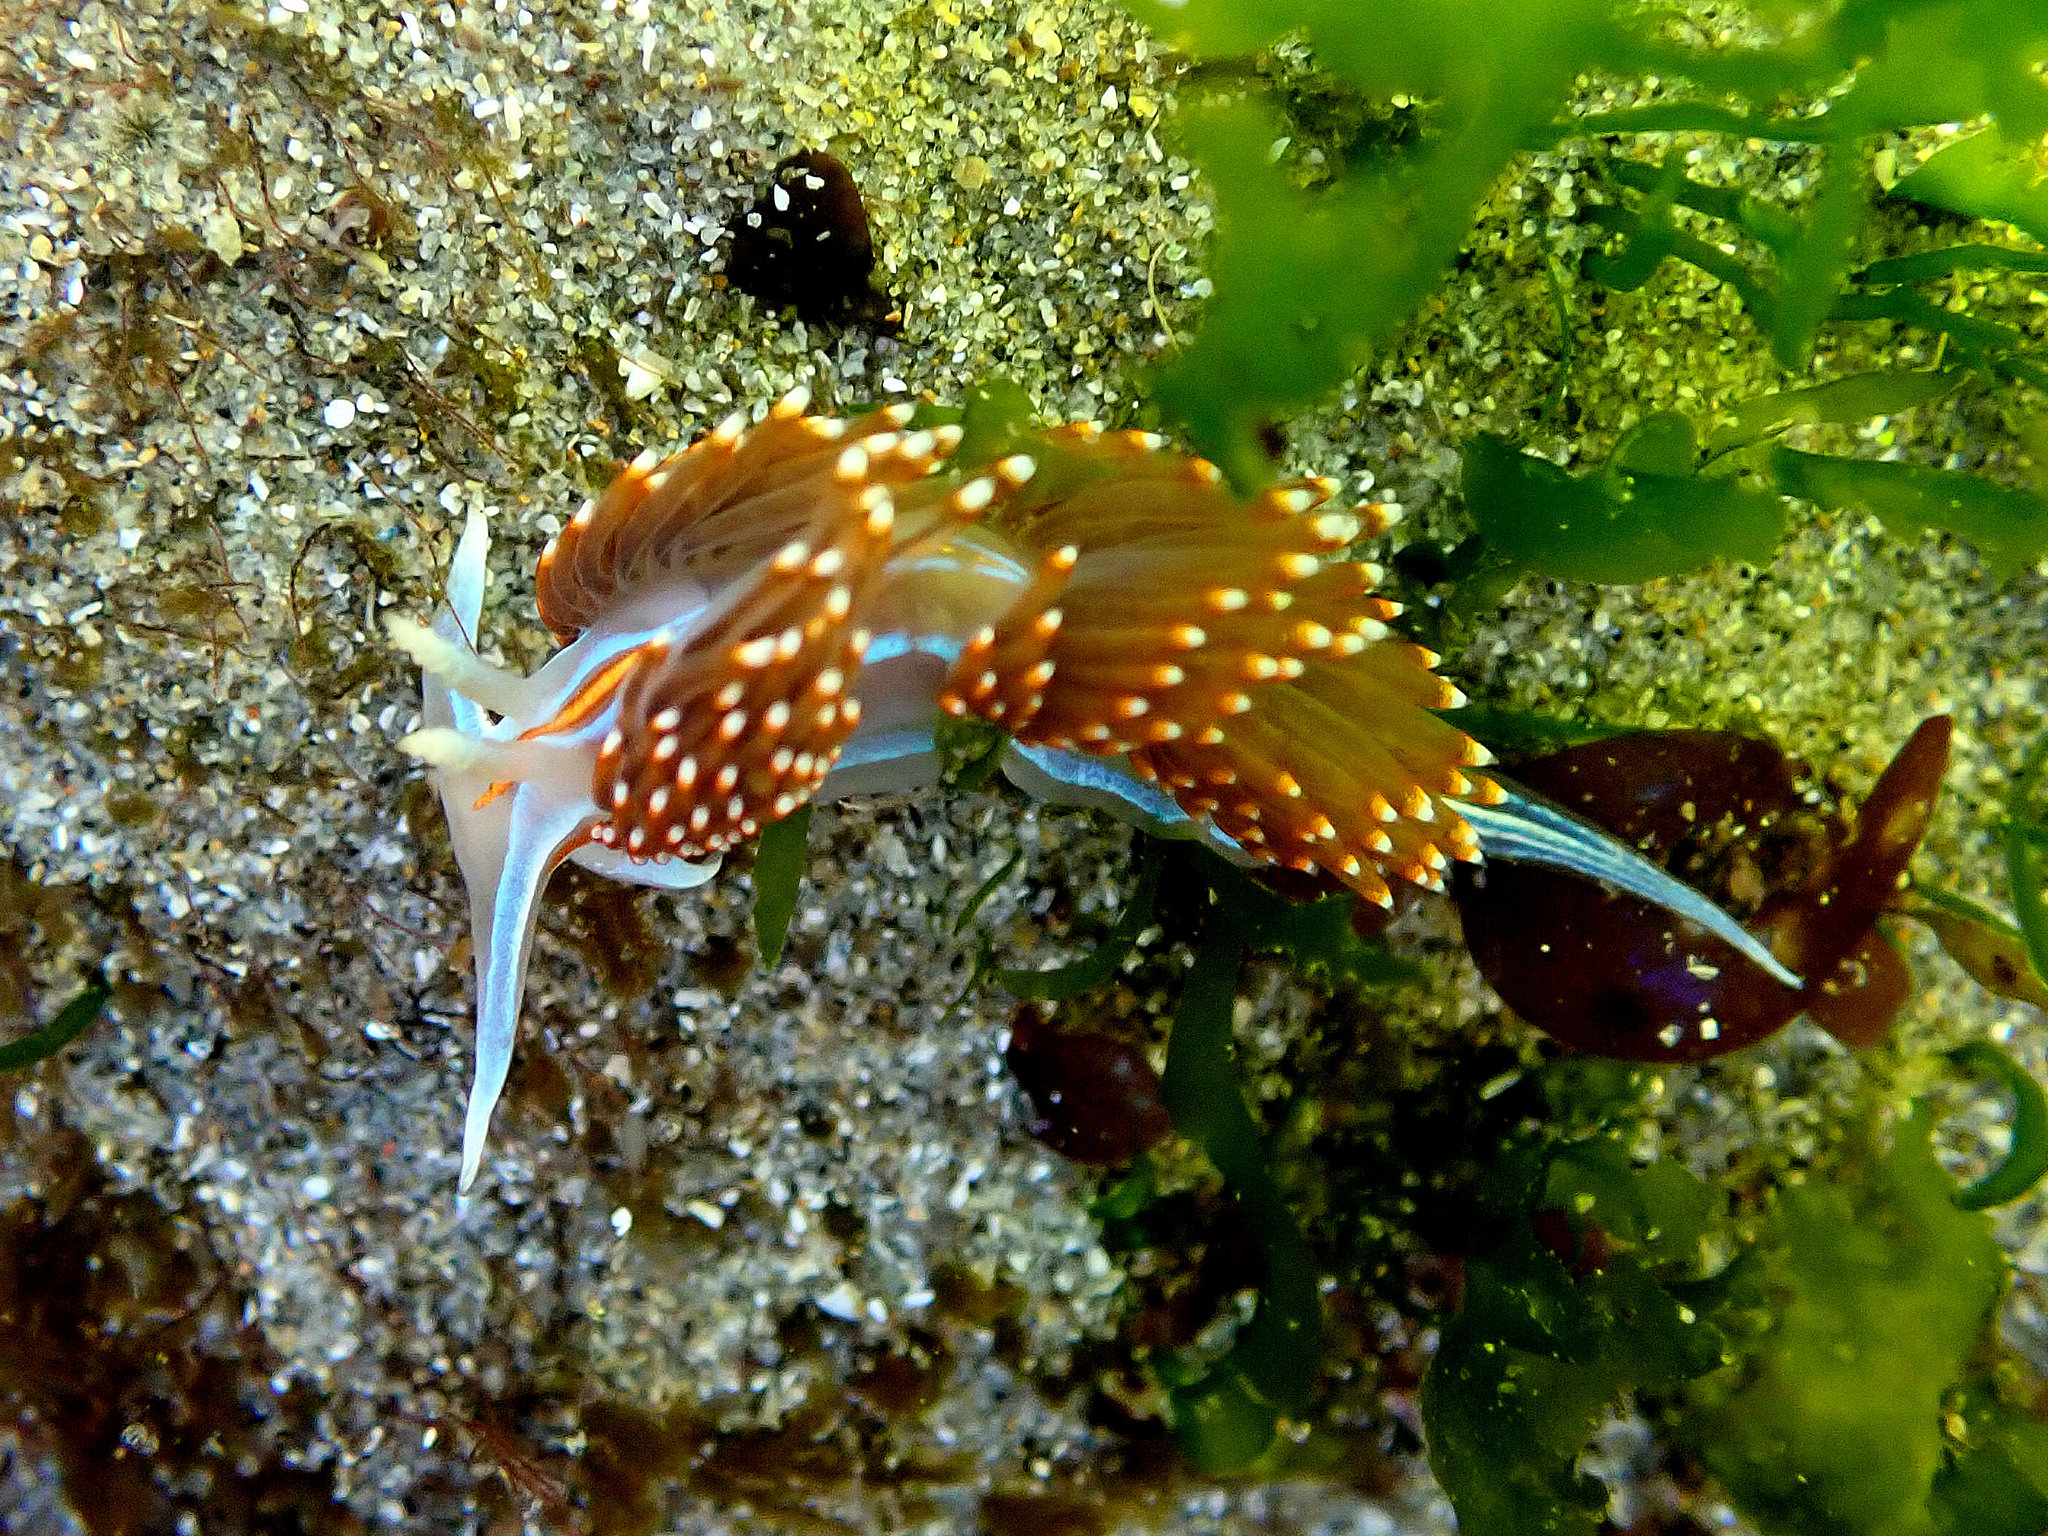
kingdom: Animalia
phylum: Mollusca
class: Gastropoda
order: Nudibranchia
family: Myrrhinidae
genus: Hermissenda
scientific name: Hermissenda opalescens
